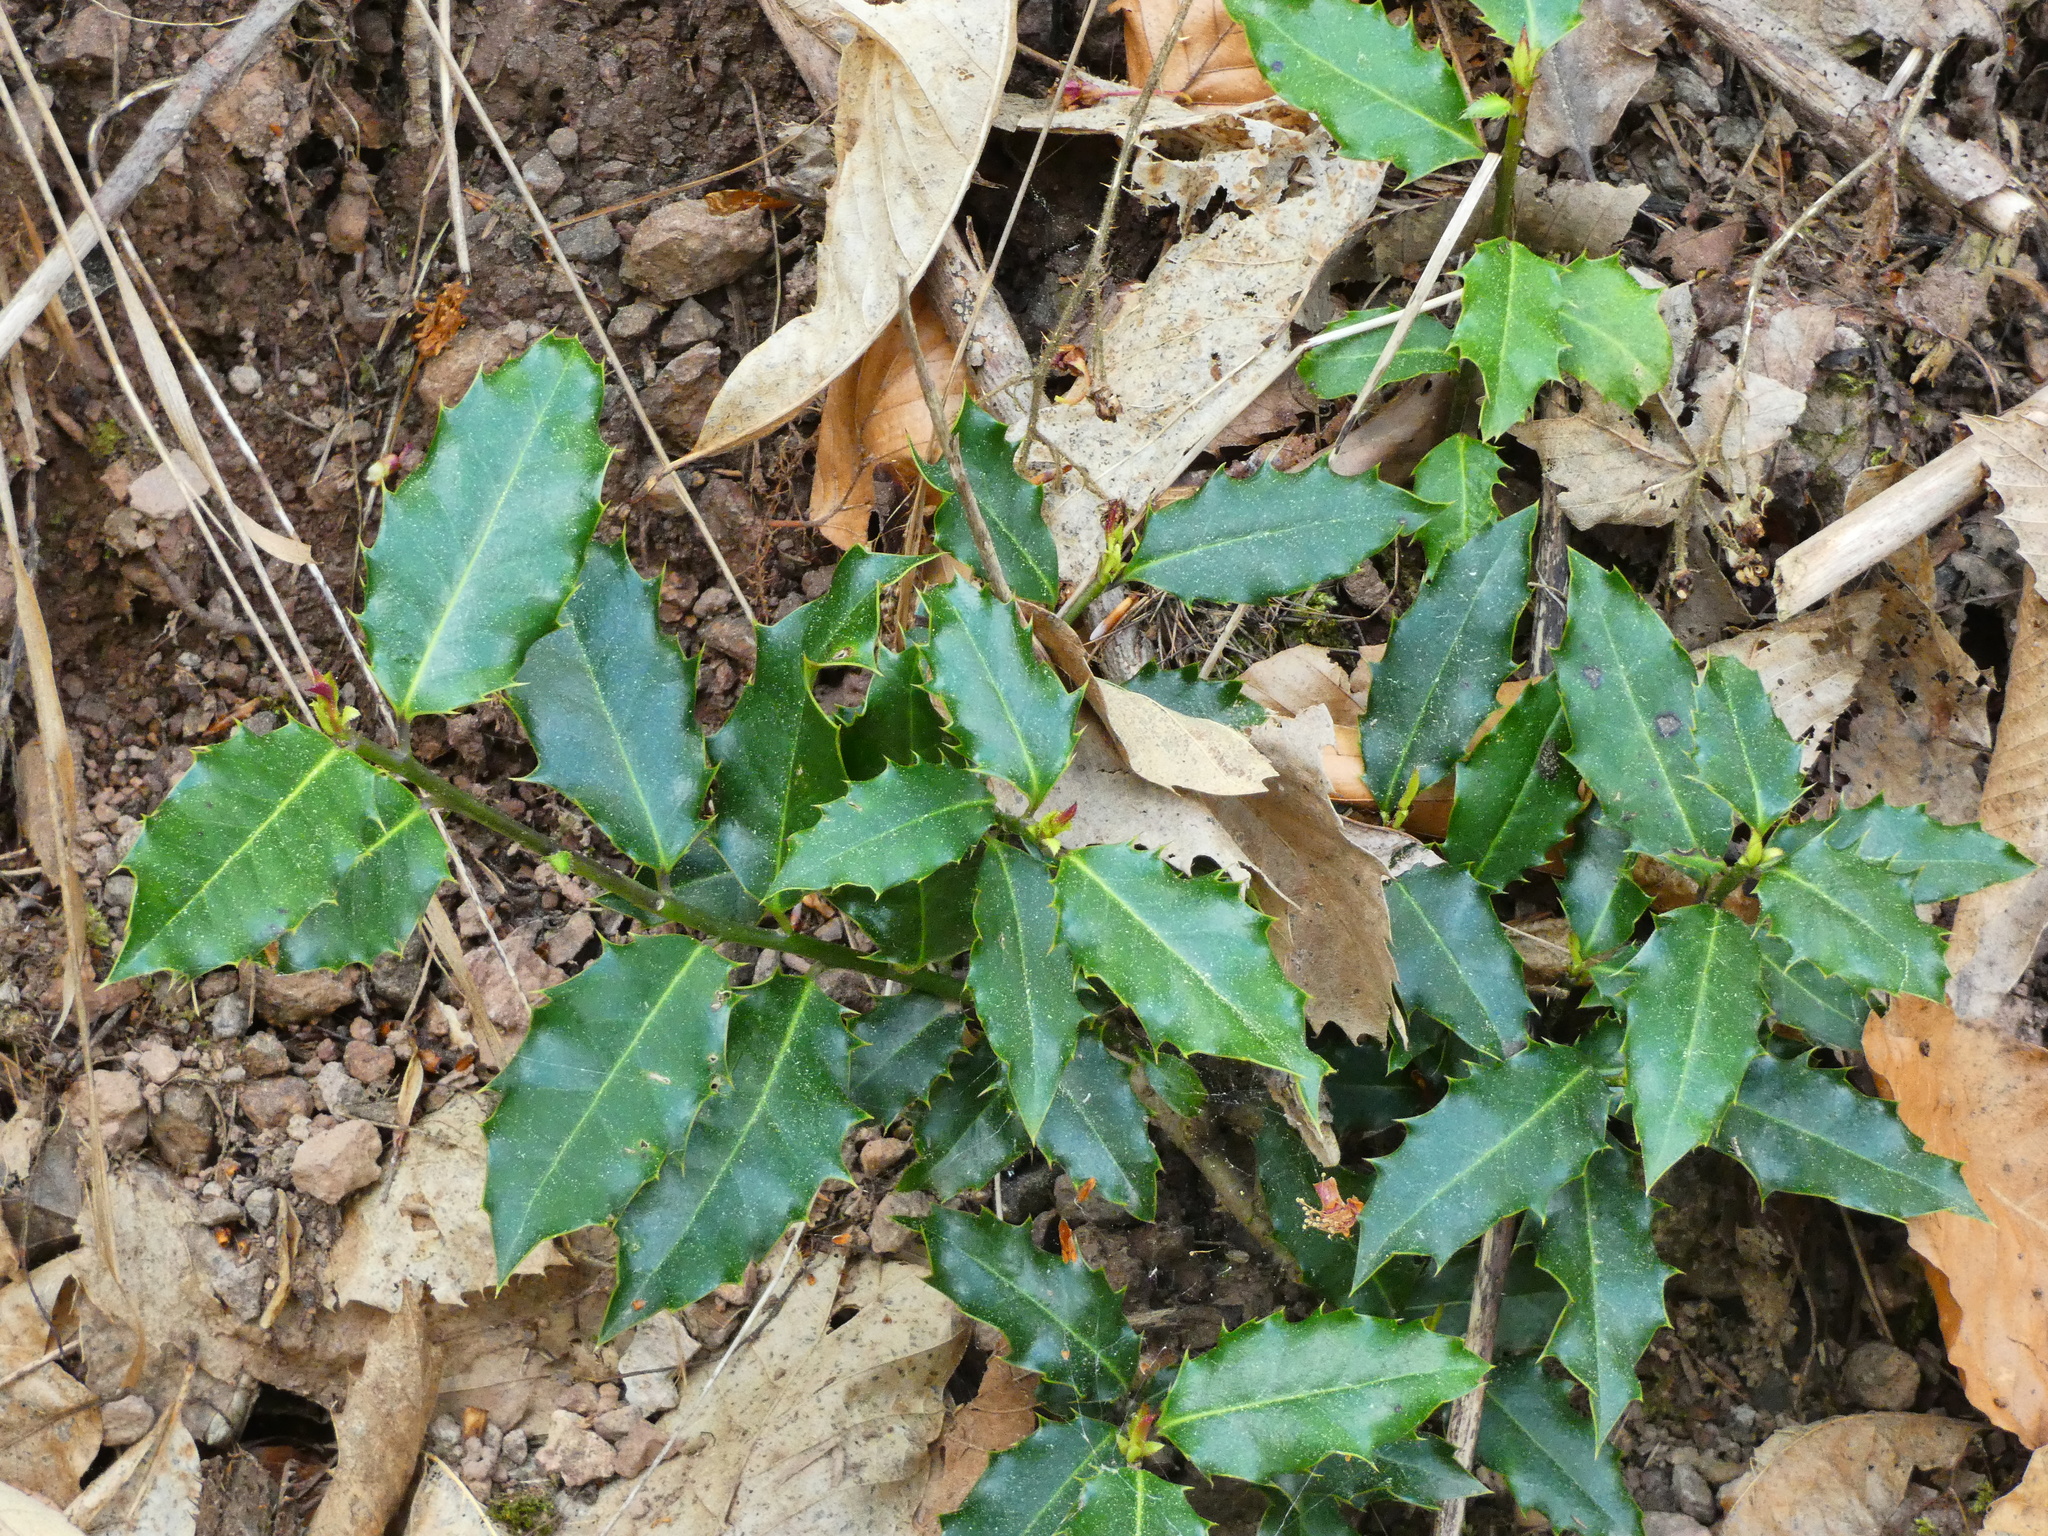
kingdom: Plantae
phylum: Tracheophyta
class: Magnoliopsida
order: Aquifoliales
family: Aquifoliaceae
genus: Ilex
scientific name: Ilex aquifolium
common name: English holly
